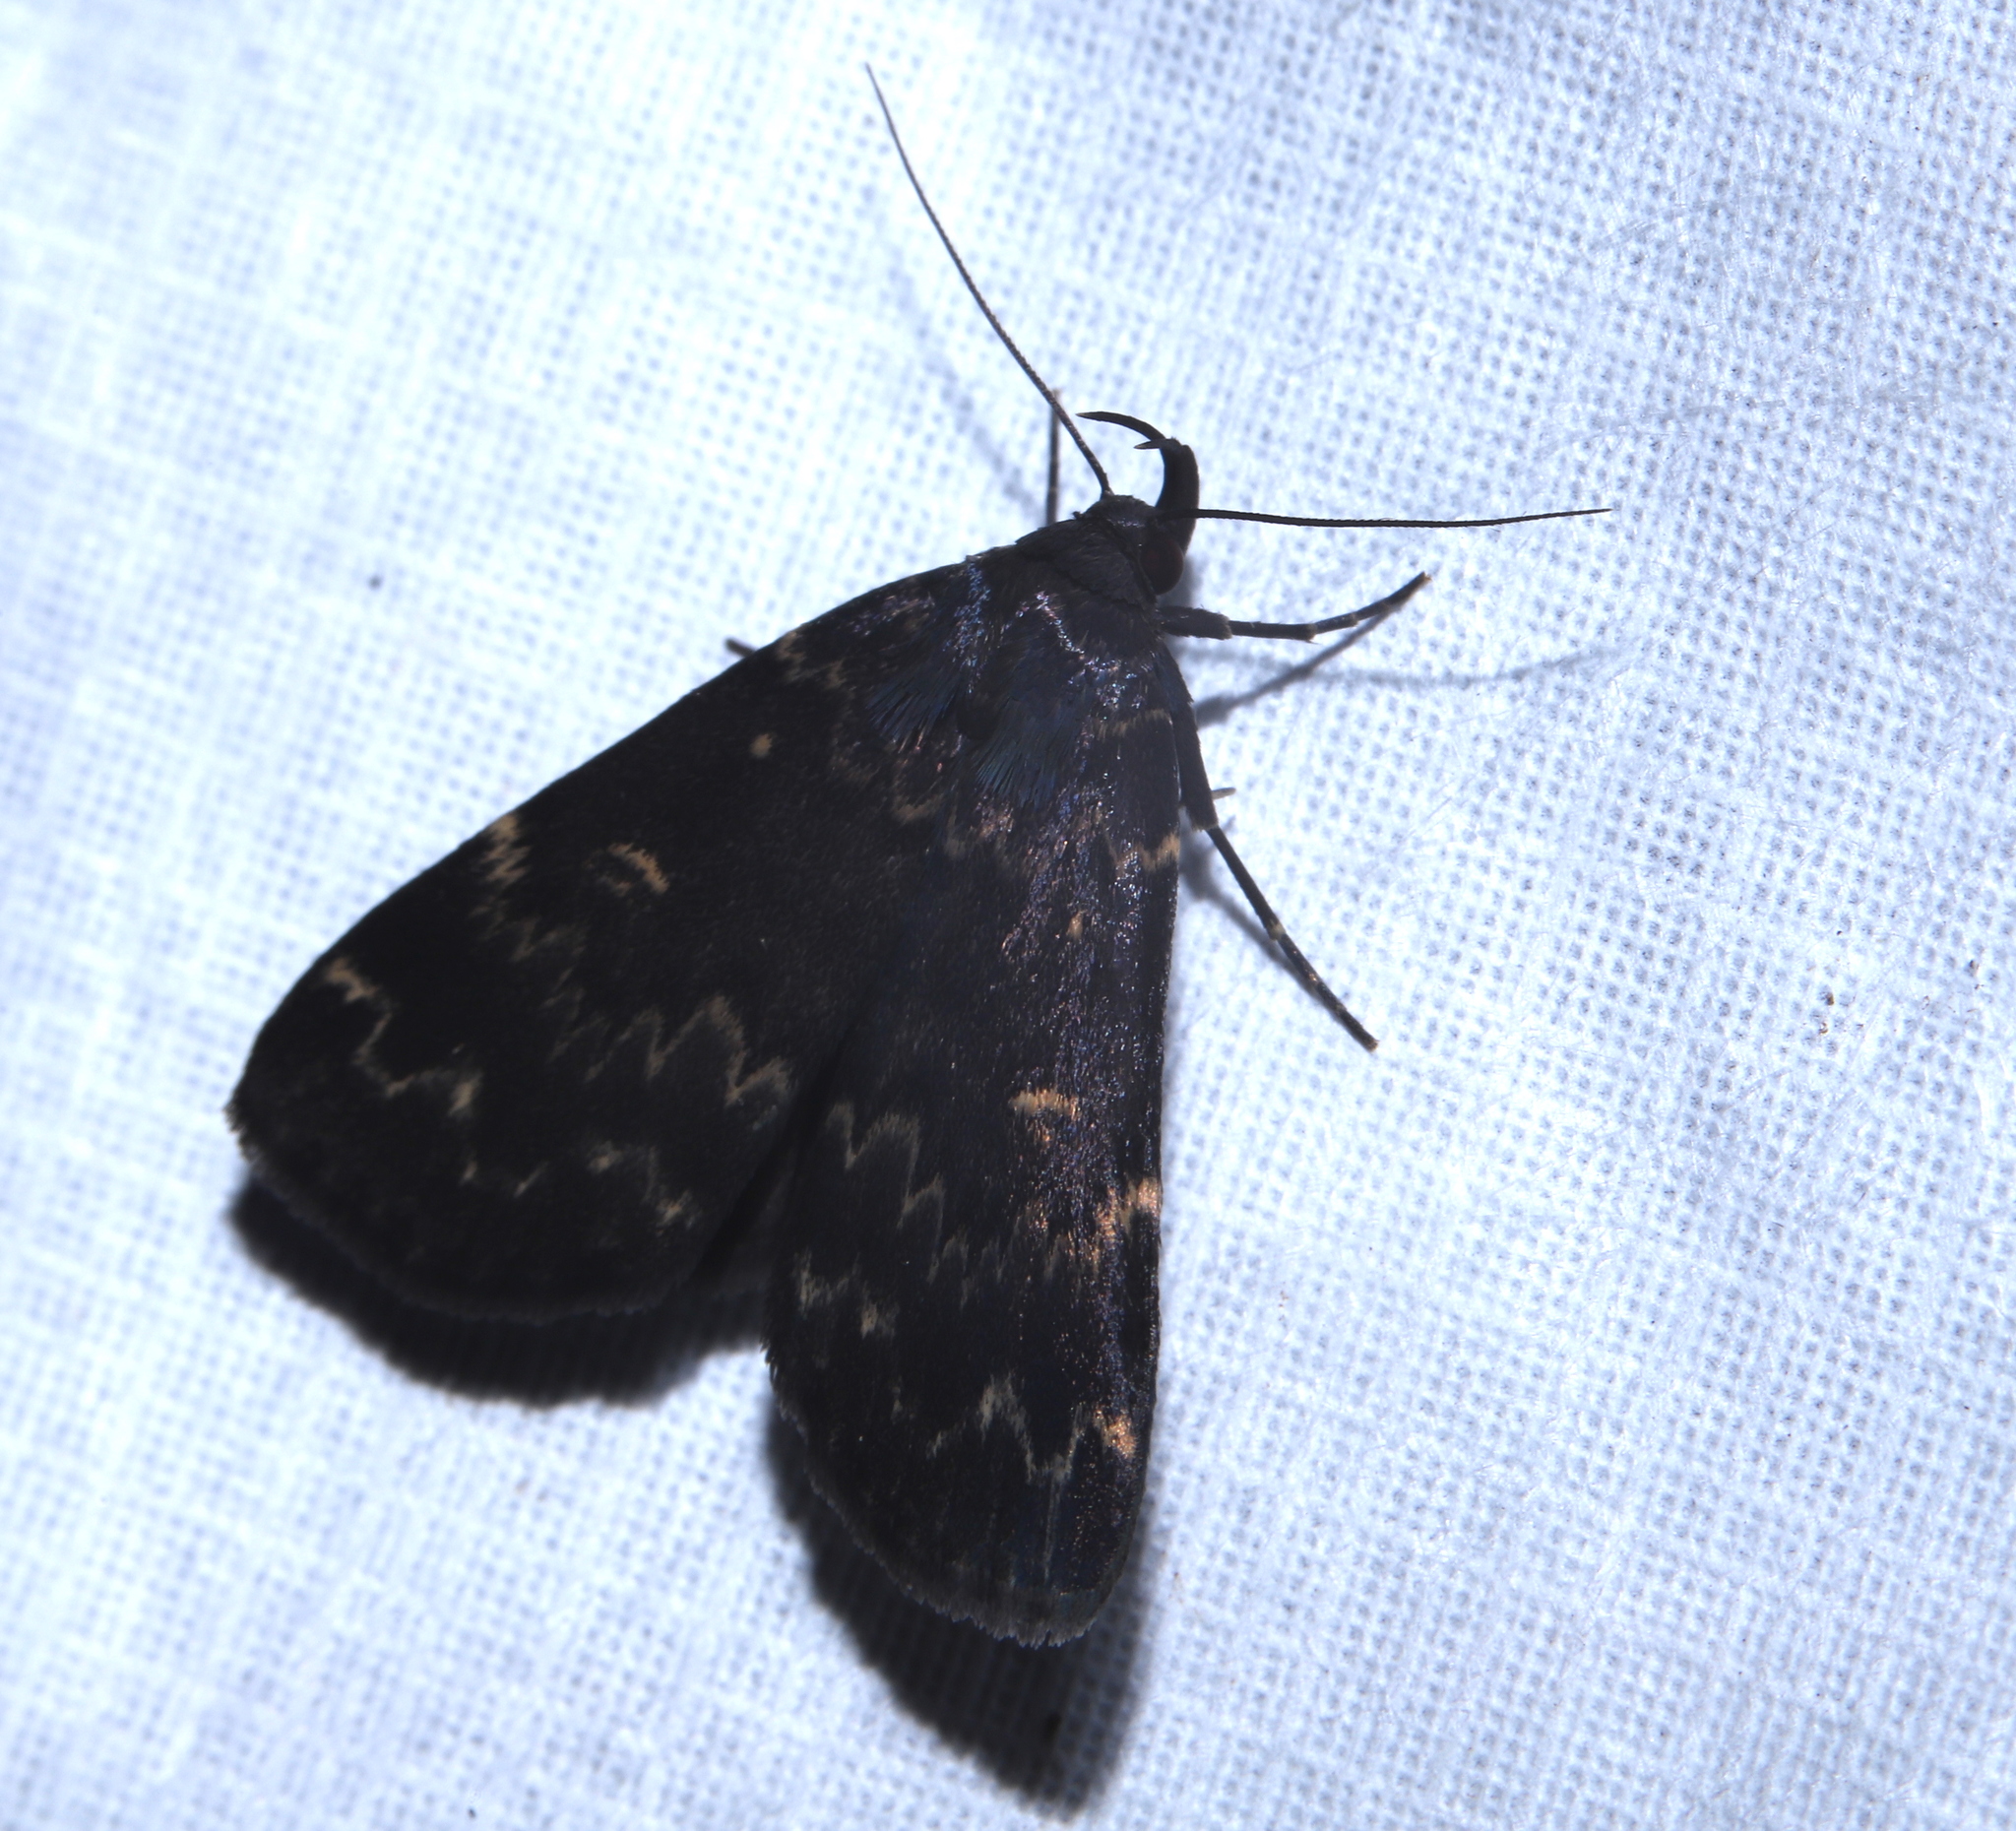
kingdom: Animalia
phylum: Arthropoda
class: Insecta
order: Lepidoptera
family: Erebidae
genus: Idia
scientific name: Idia lubricalis
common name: Twin-striped tabby
